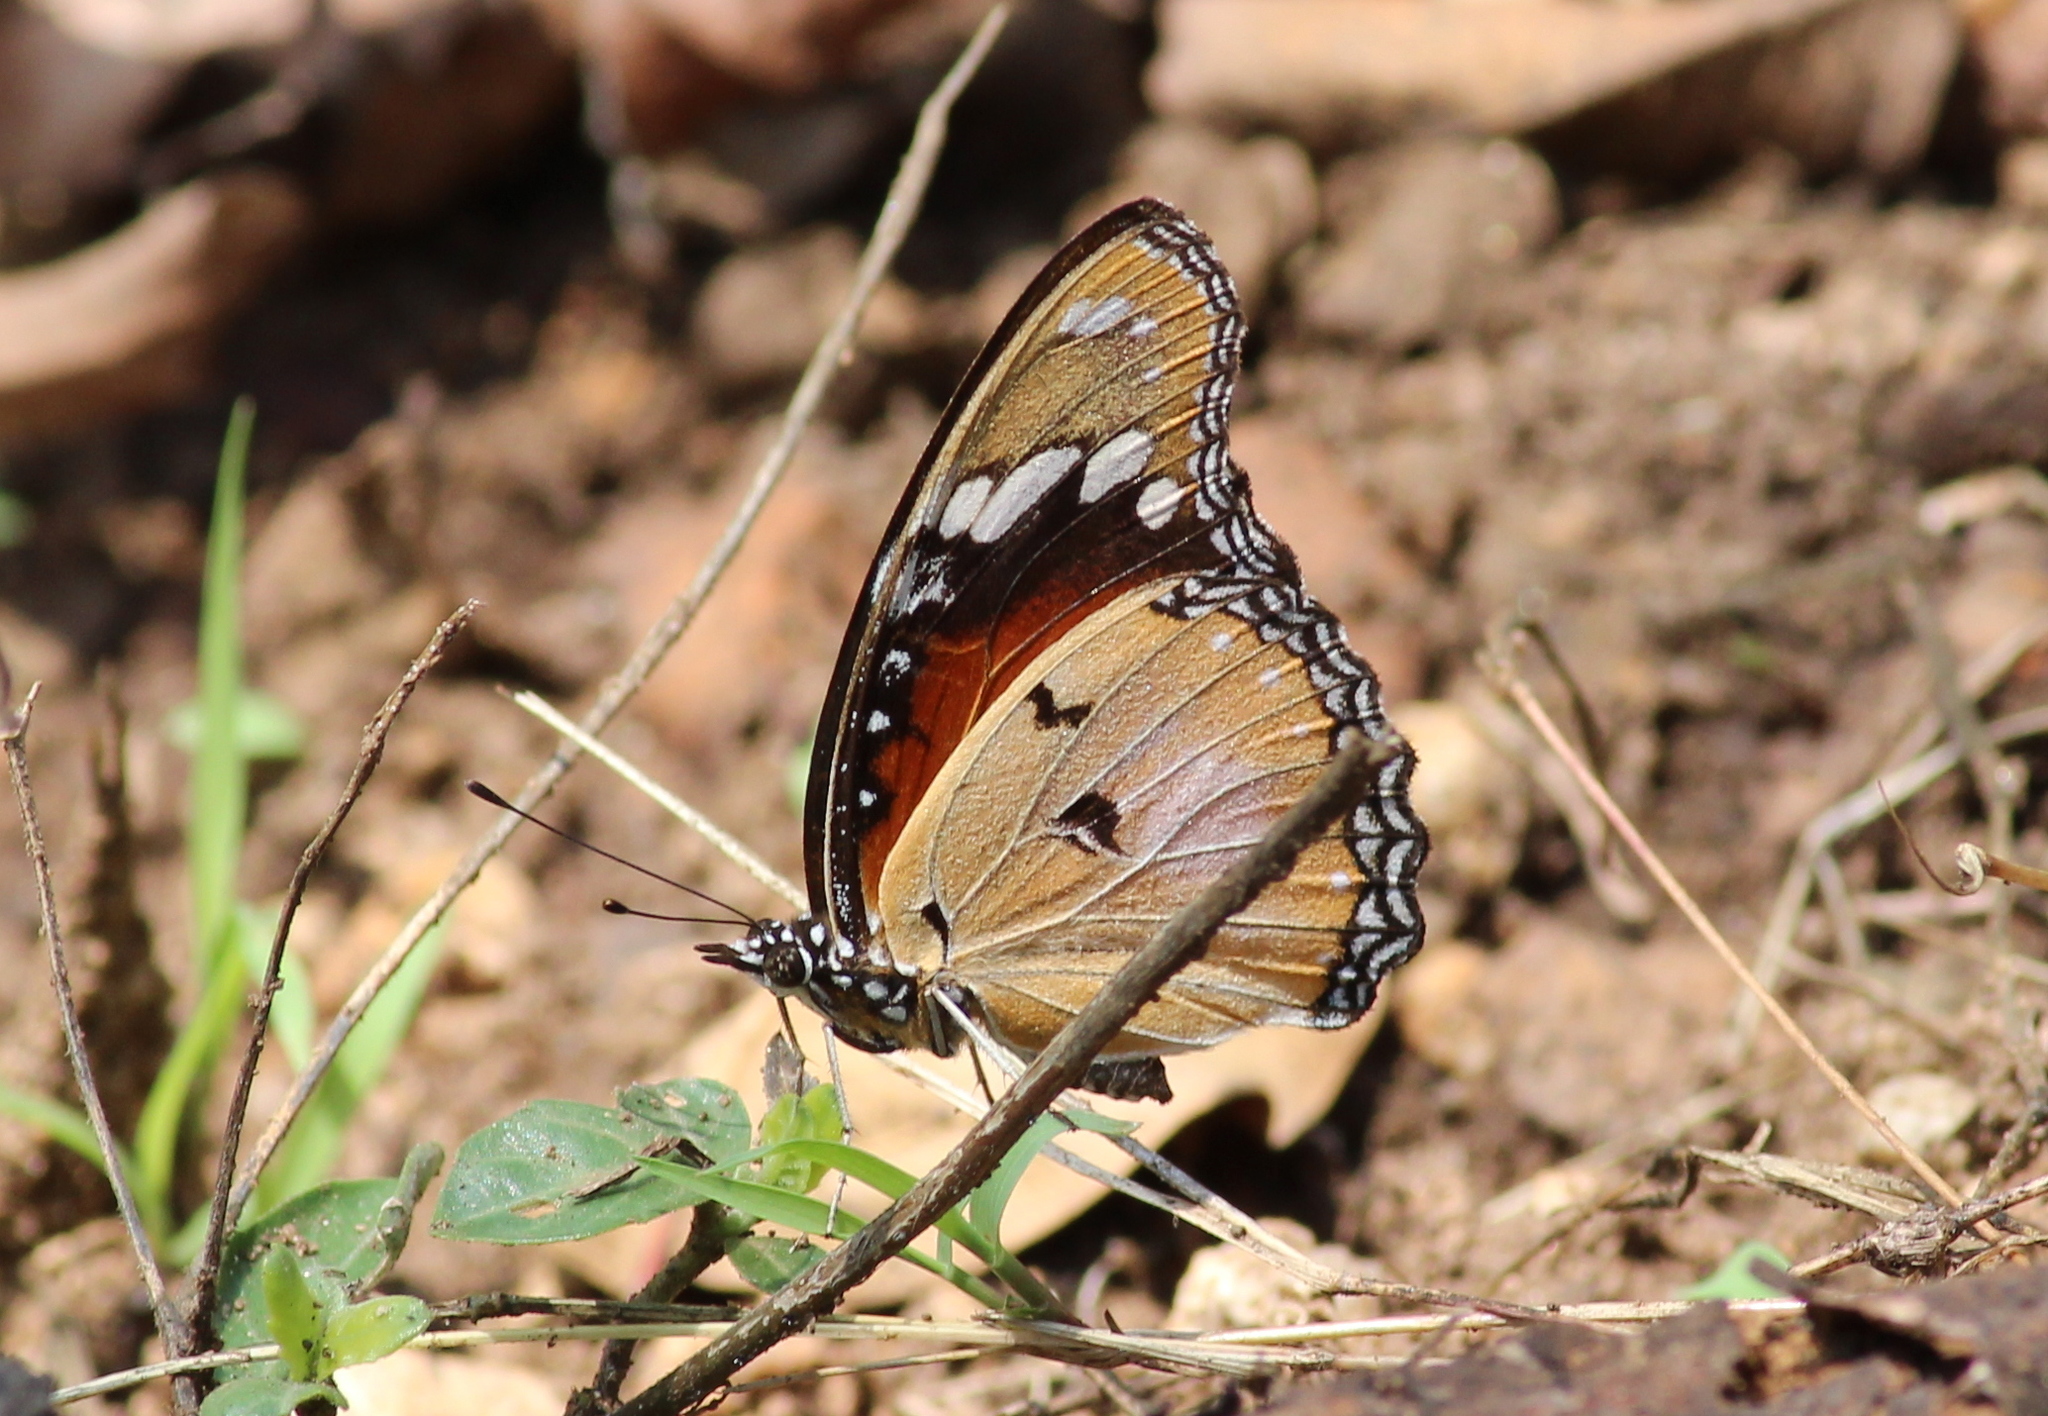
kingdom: Animalia
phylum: Arthropoda
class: Insecta
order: Lepidoptera
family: Nymphalidae
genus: Hypolimnas
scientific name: Hypolimnas misippus
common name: False plain tiger
